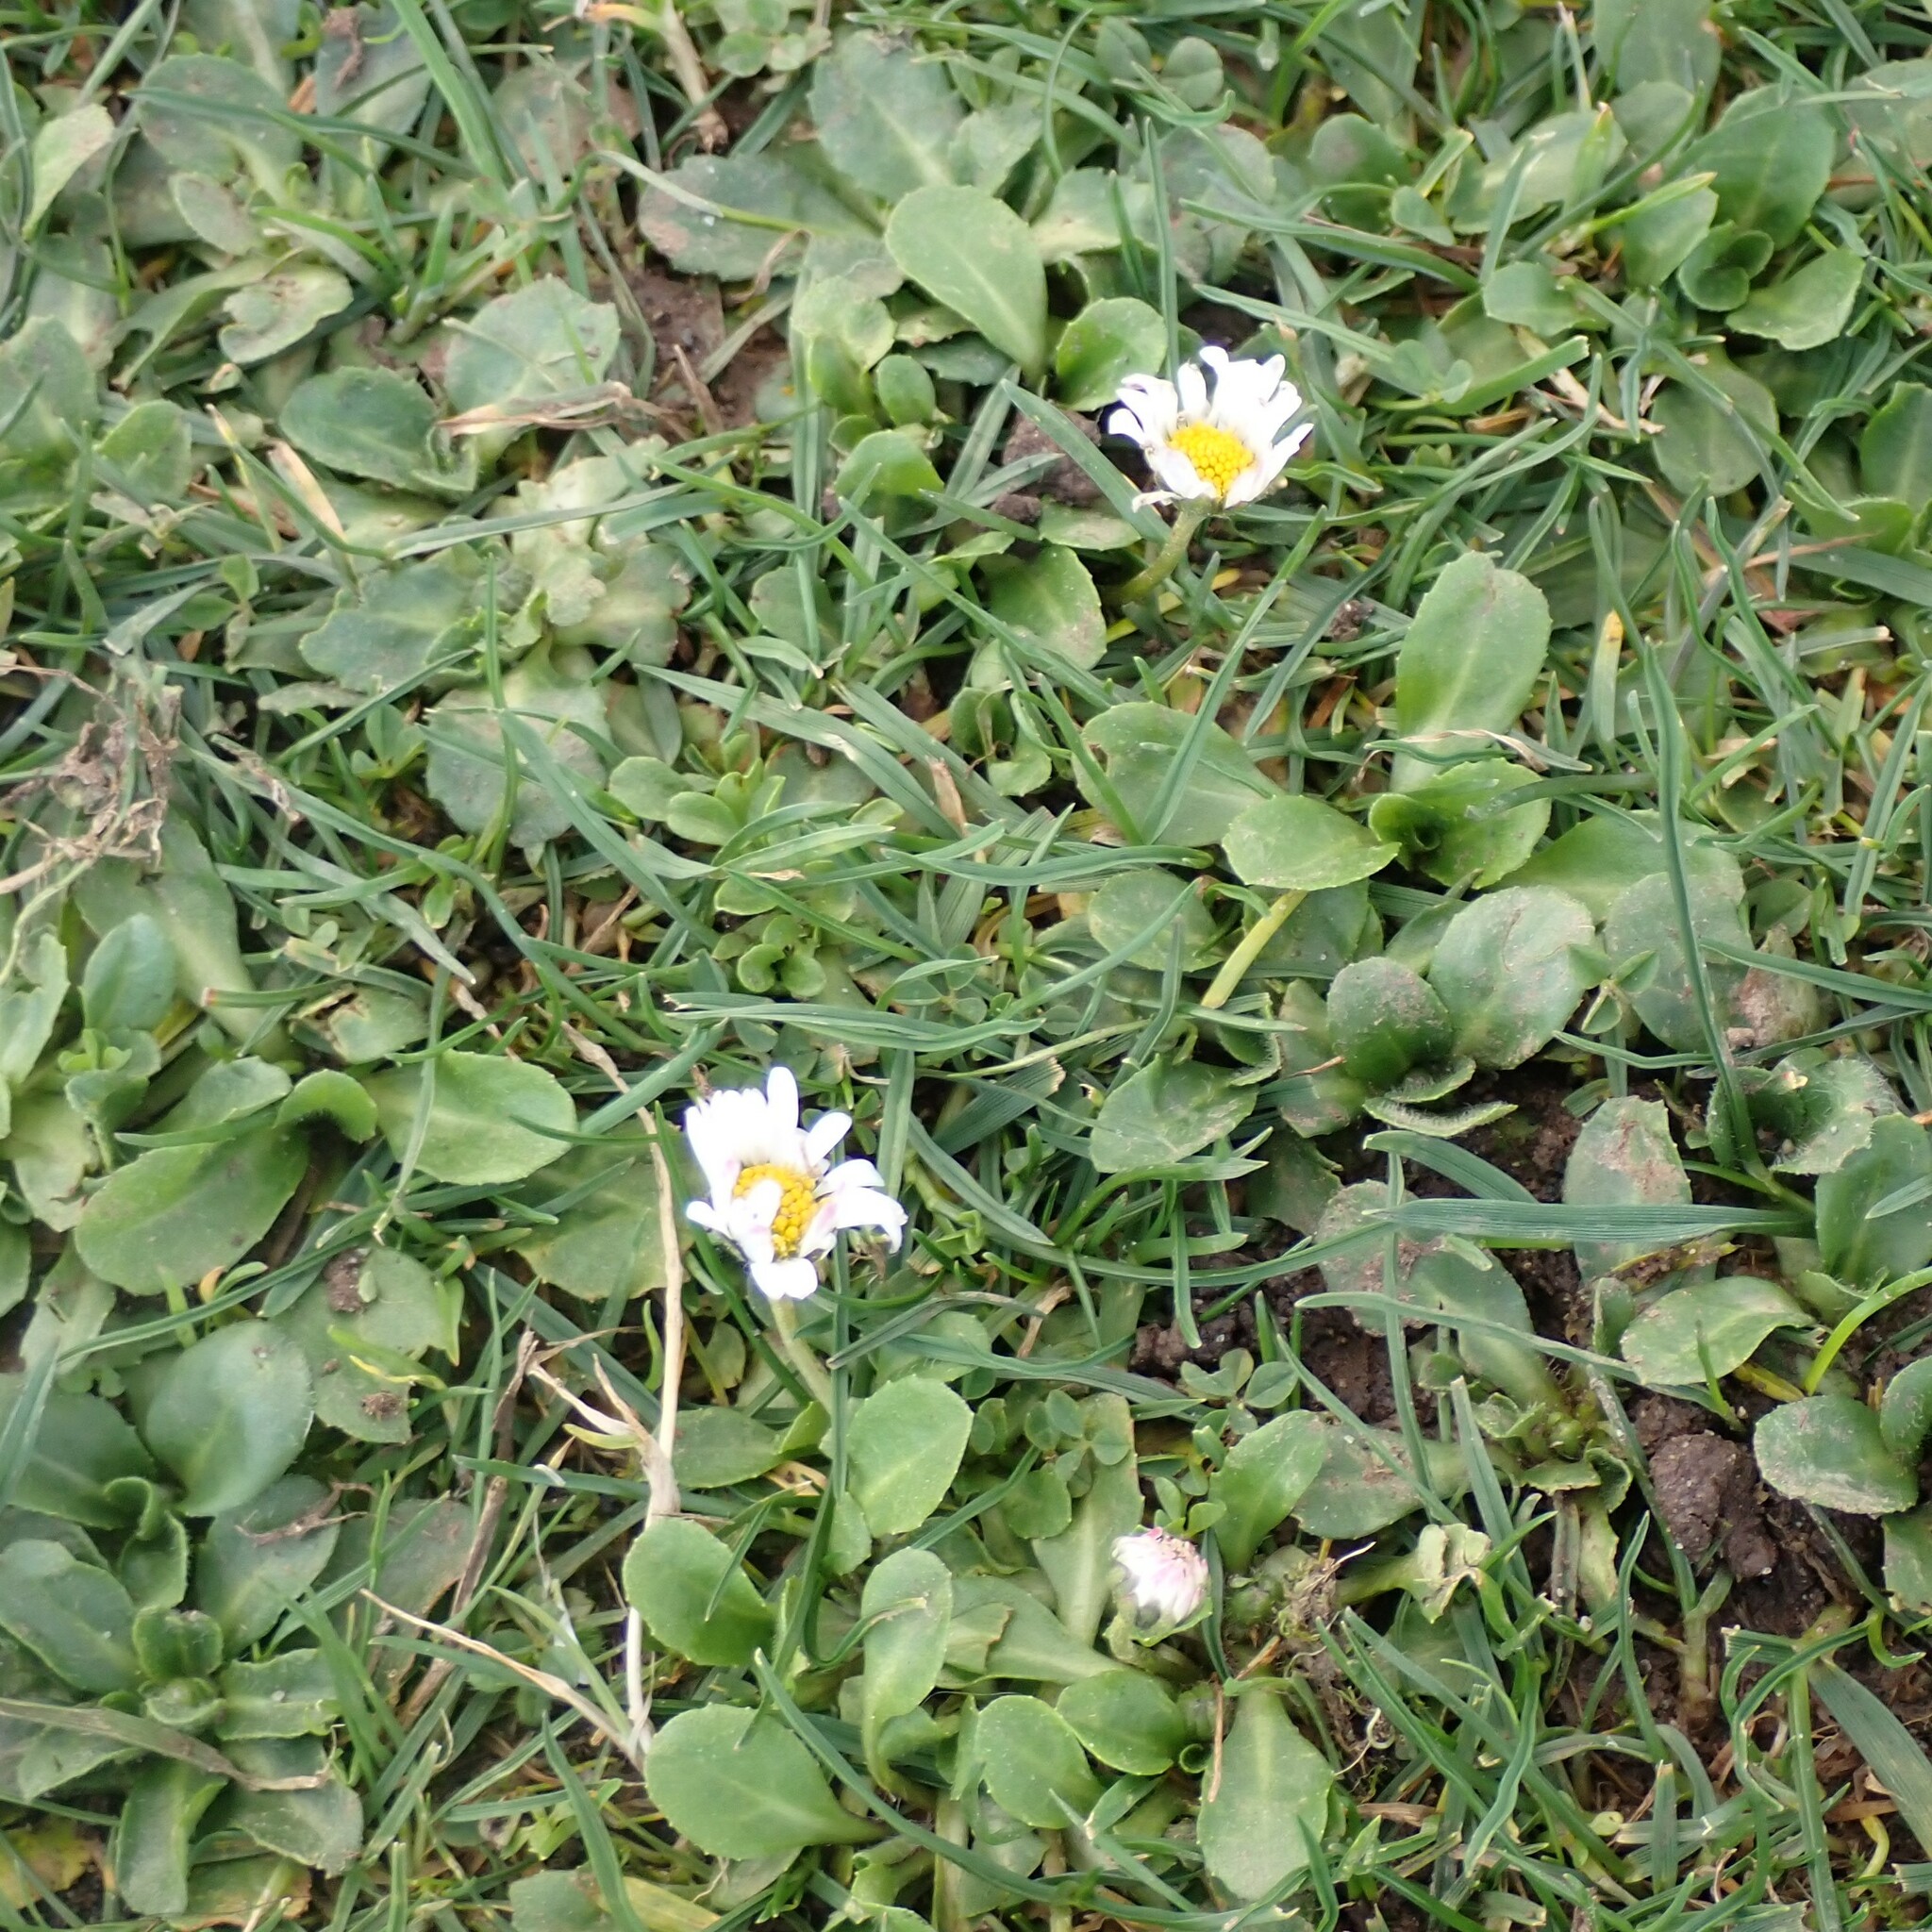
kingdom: Plantae
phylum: Tracheophyta
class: Magnoliopsida
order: Asterales
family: Asteraceae
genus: Bellis
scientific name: Bellis perennis
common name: Lawndaisy
